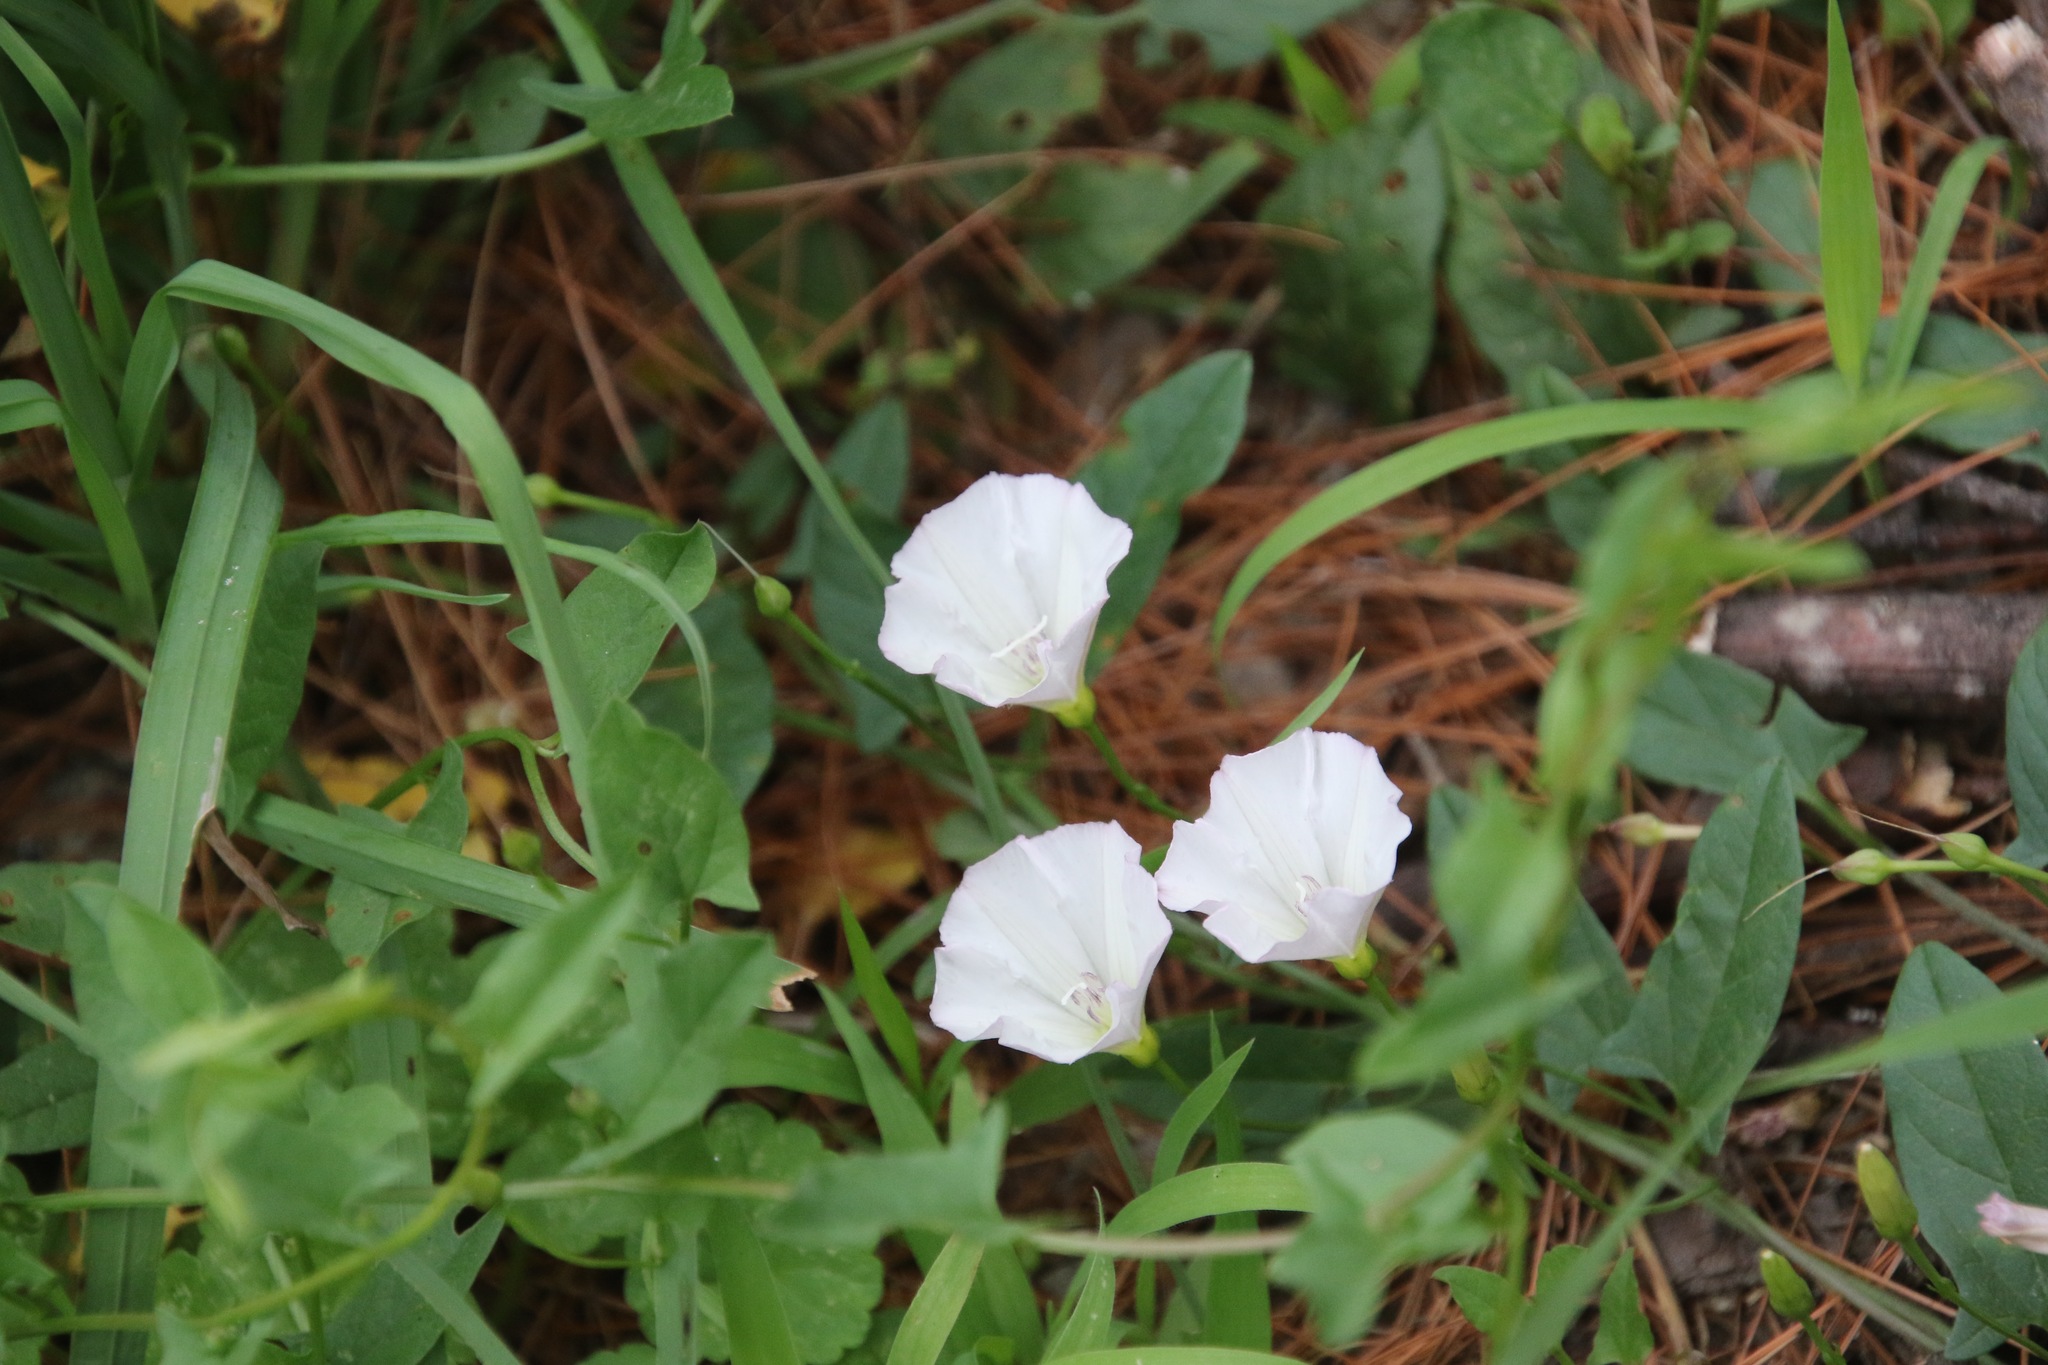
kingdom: Plantae
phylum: Tracheophyta
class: Magnoliopsida
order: Solanales
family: Convolvulaceae
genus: Convolvulus
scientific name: Convolvulus arvensis
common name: Field bindweed
